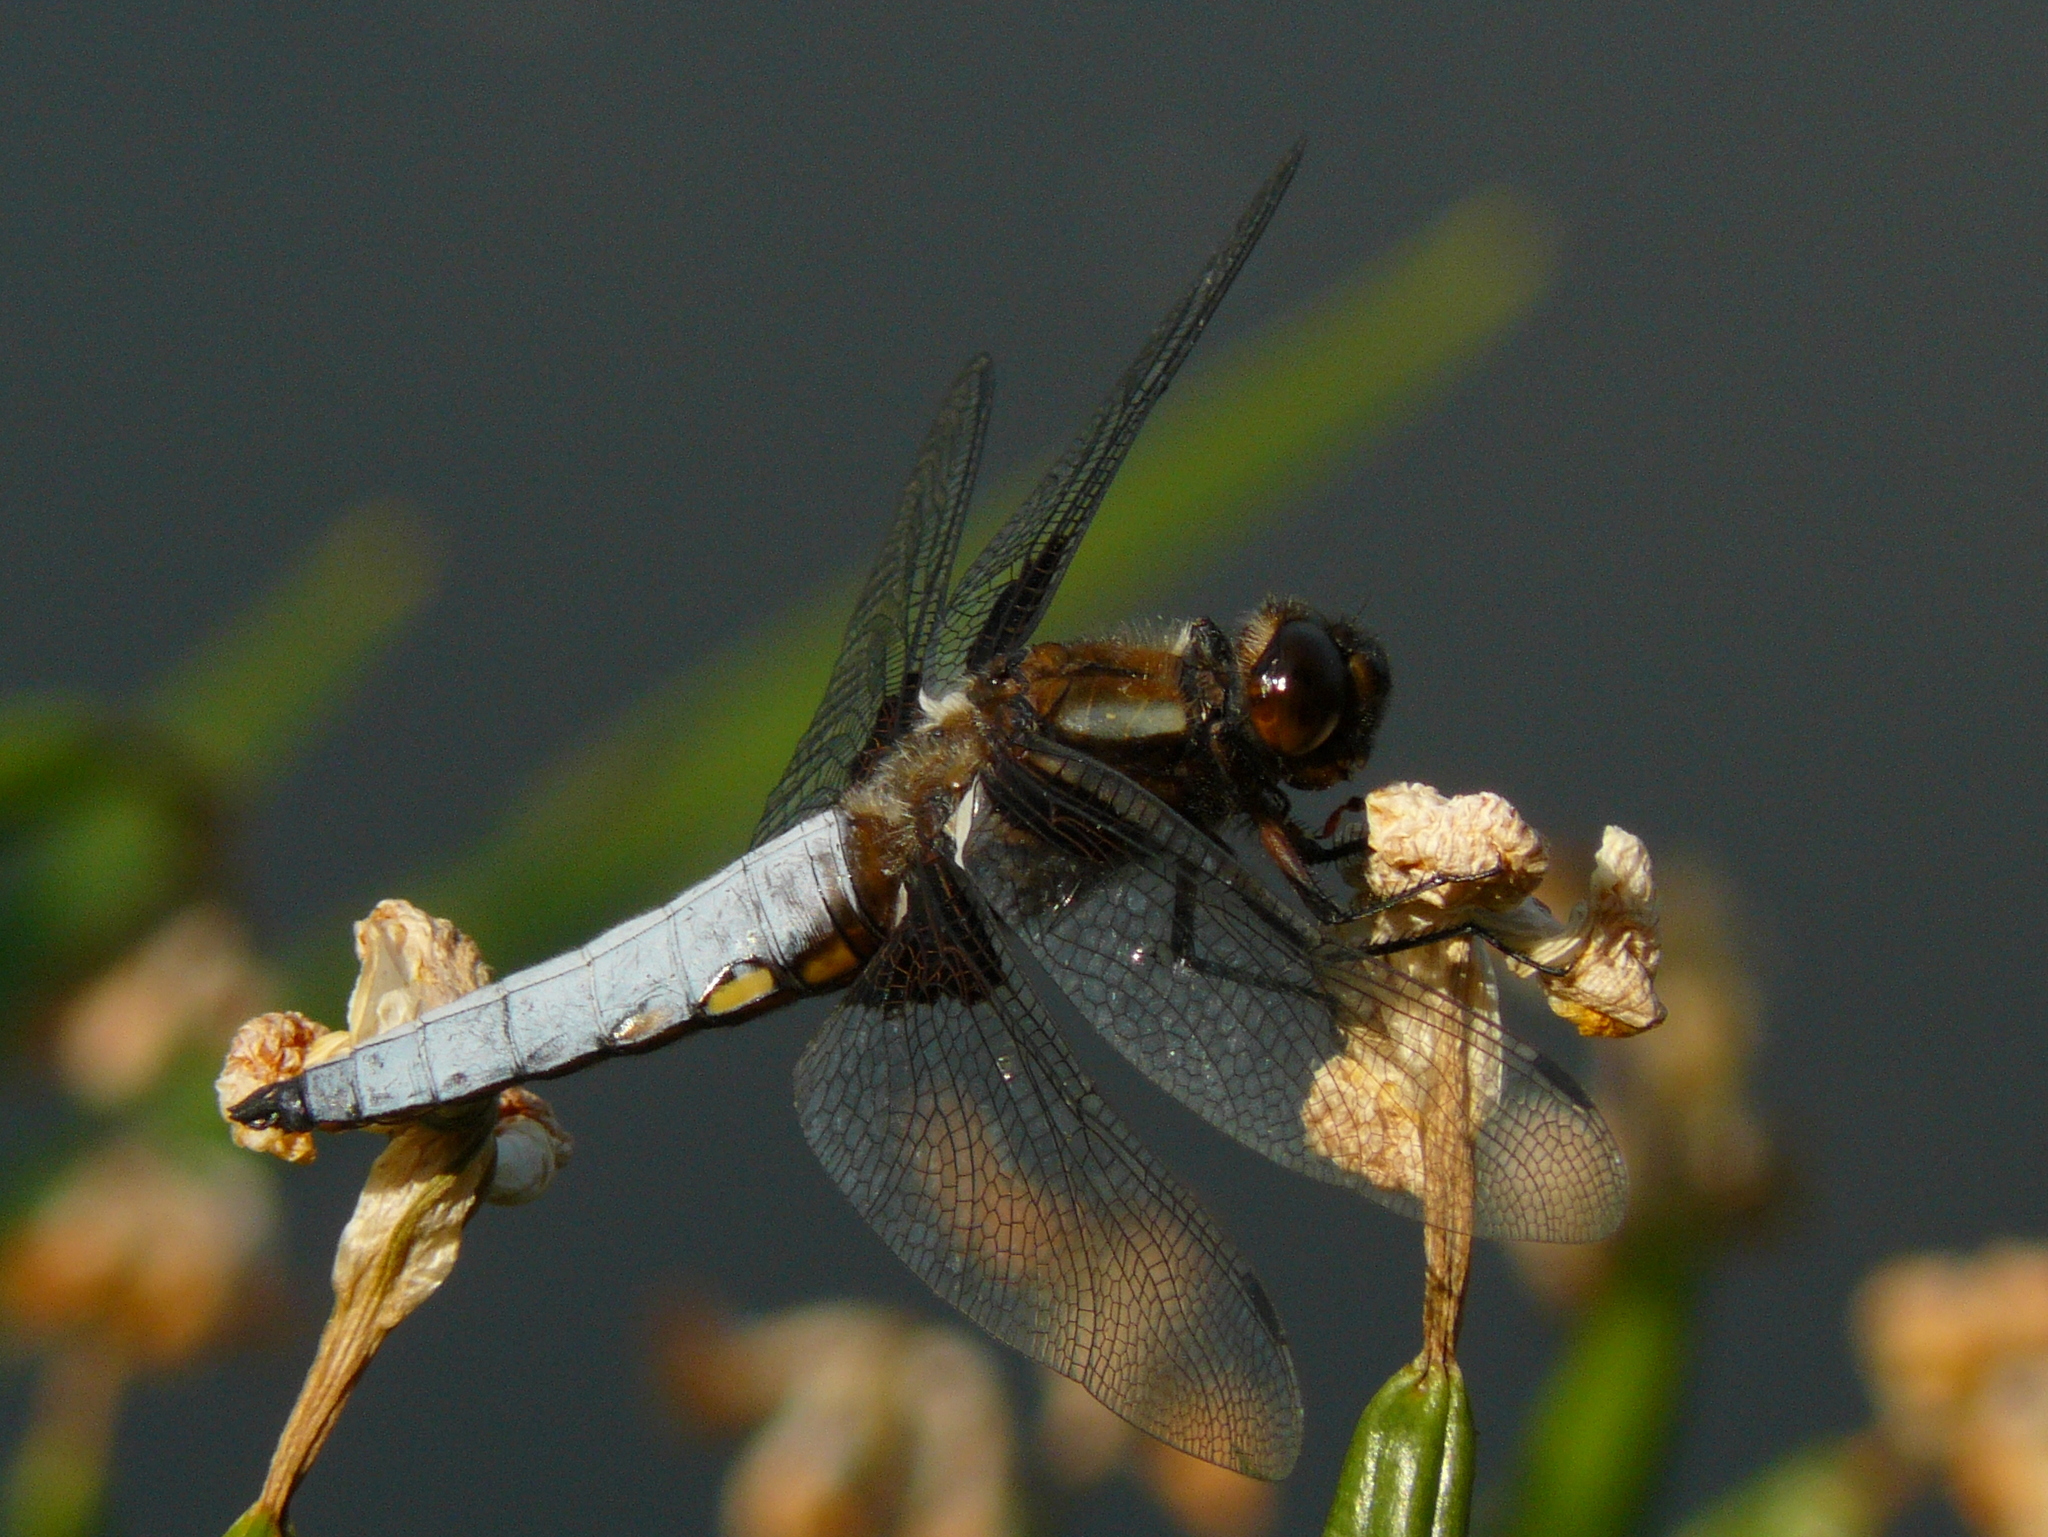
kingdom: Animalia
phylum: Arthropoda
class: Insecta
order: Odonata
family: Libellulidae
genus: Libellula
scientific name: Libellula depressa
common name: Broad-bodied chaser
